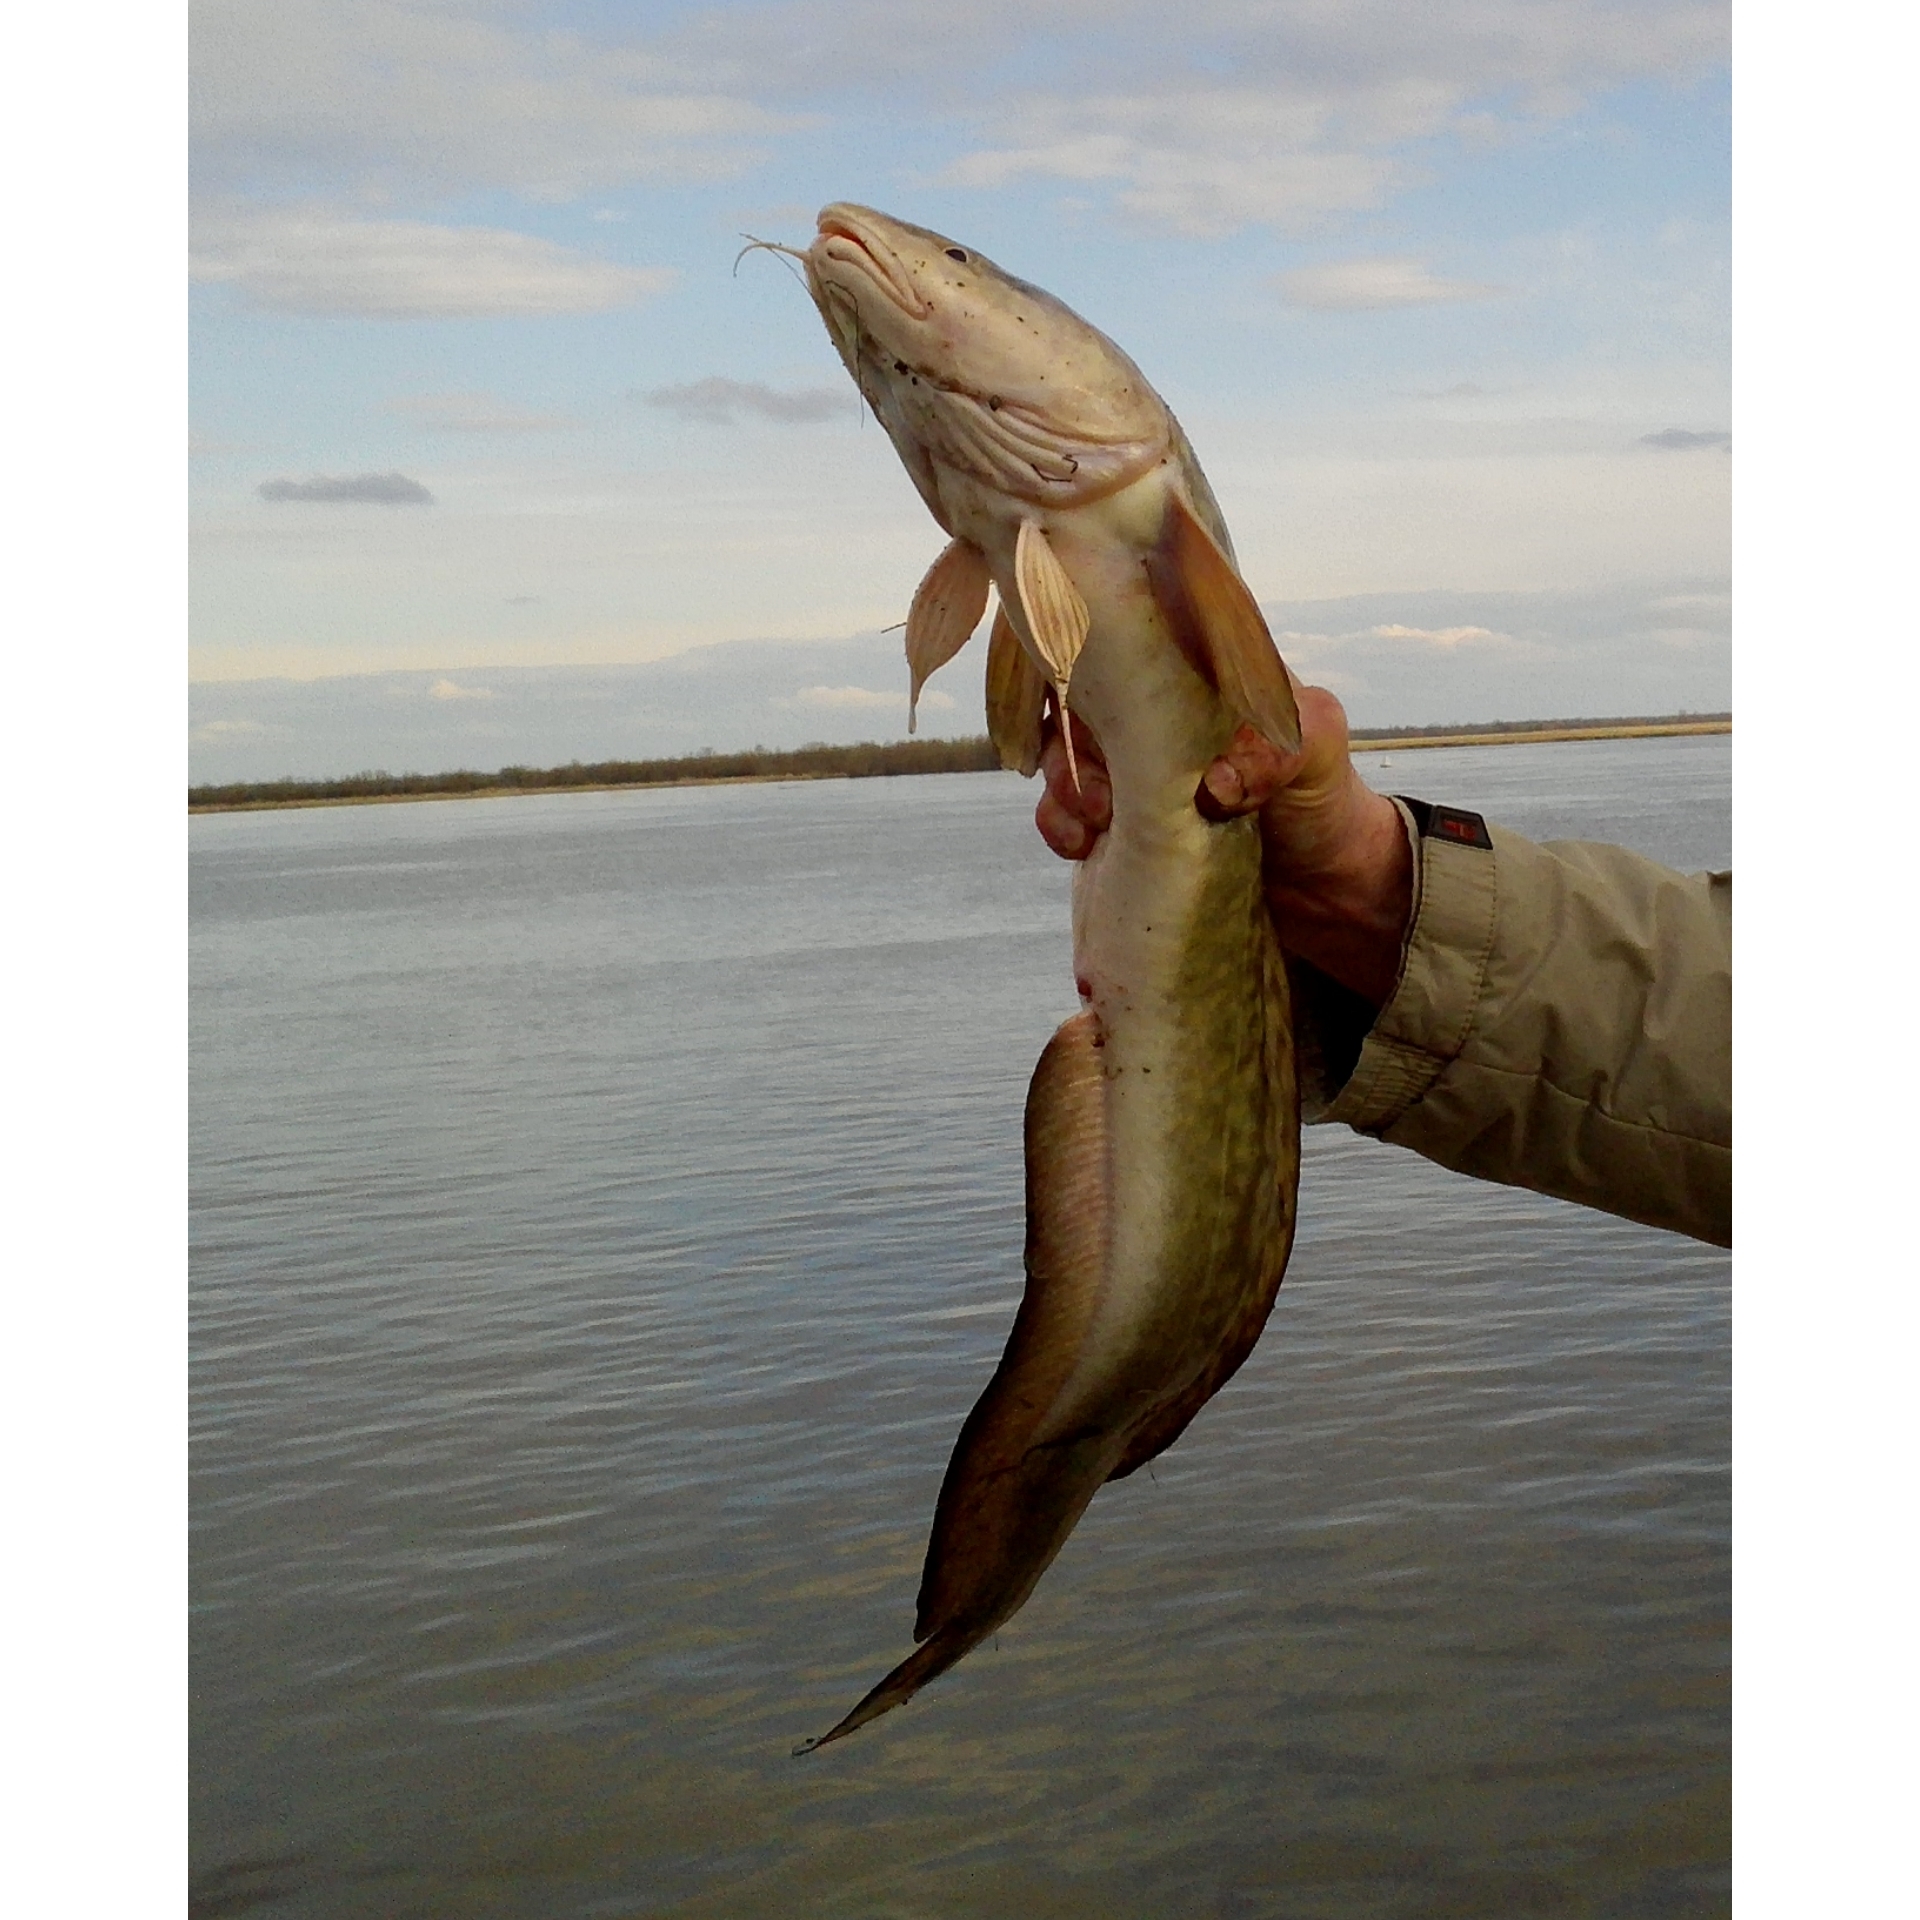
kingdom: Animalia
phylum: Chordata
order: Gadiformes
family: Lotidae
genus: Lota
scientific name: Lota lota
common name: Burbot
